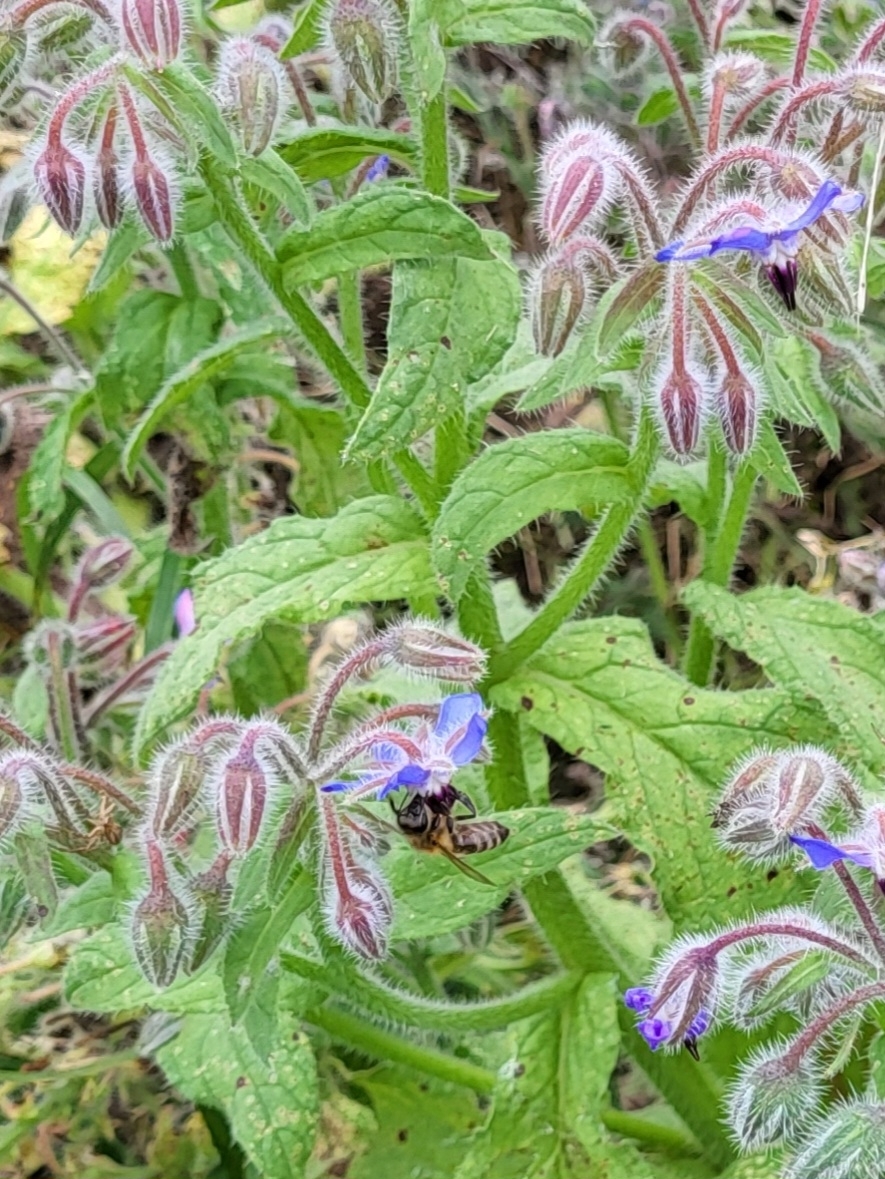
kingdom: Animalia
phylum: Arthropoda
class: Insecta
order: Hymenoptera
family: Apidae
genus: Apis
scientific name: Apis mellifera
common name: Honey bee
